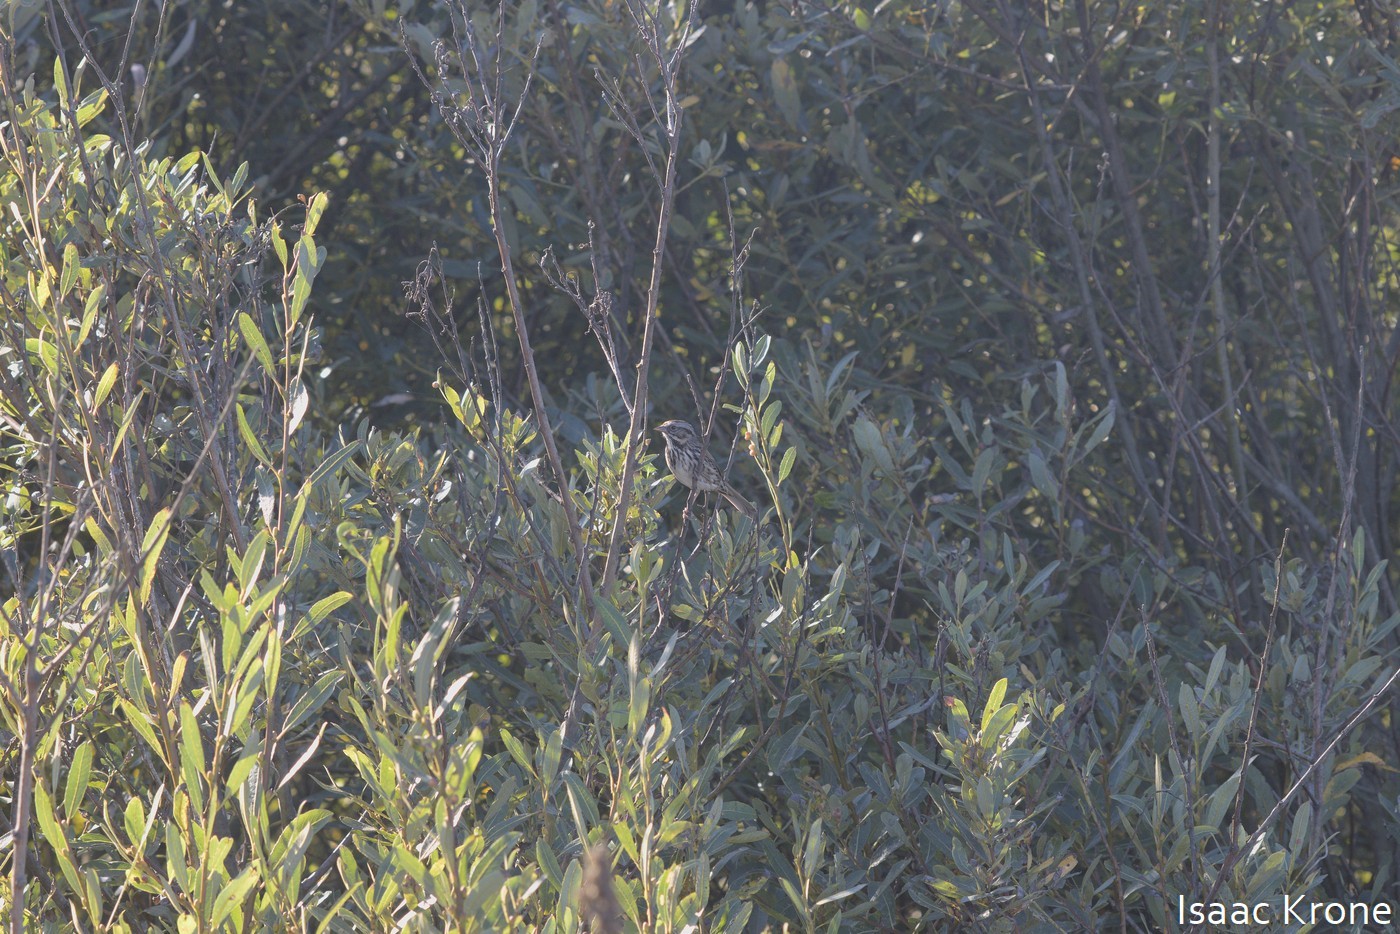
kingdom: Animalia
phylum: Chordata
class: Aves
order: Passeriformes
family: Passerellidae
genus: Melospiza
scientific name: Melospiza melodia
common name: Song sparrow
